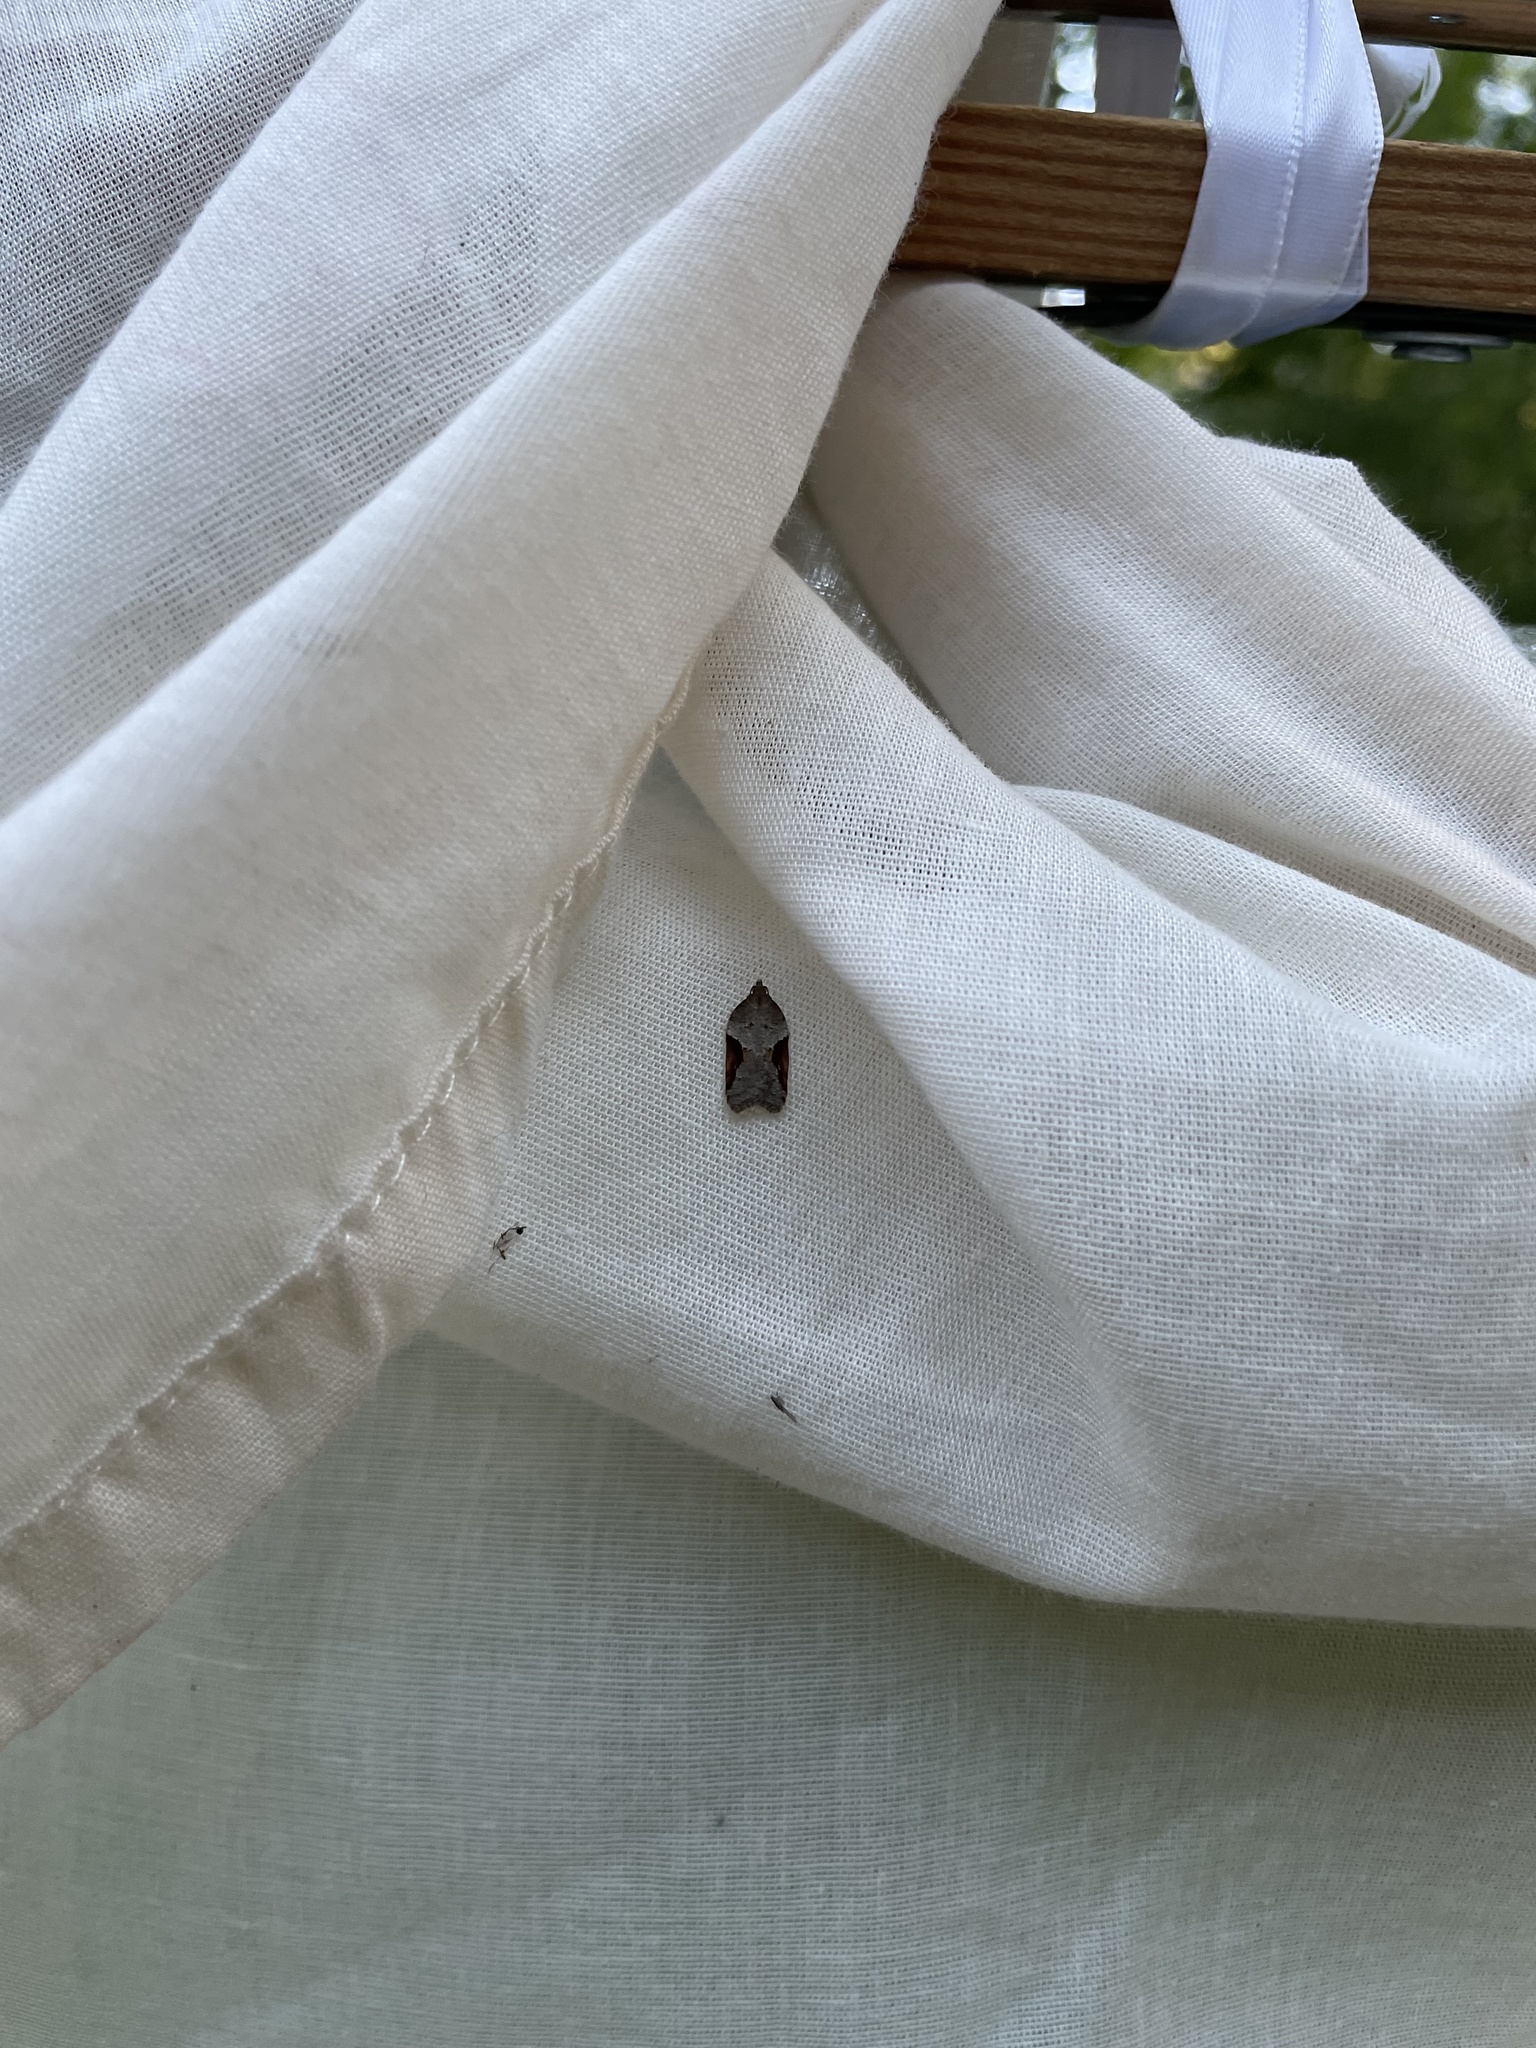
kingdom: Animalia
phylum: Arthropoda
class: Insecta
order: Lepidoptera
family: Tortricidae
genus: Acleris
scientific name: Acleris macdunnoughi
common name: Macdunnough's acleris
